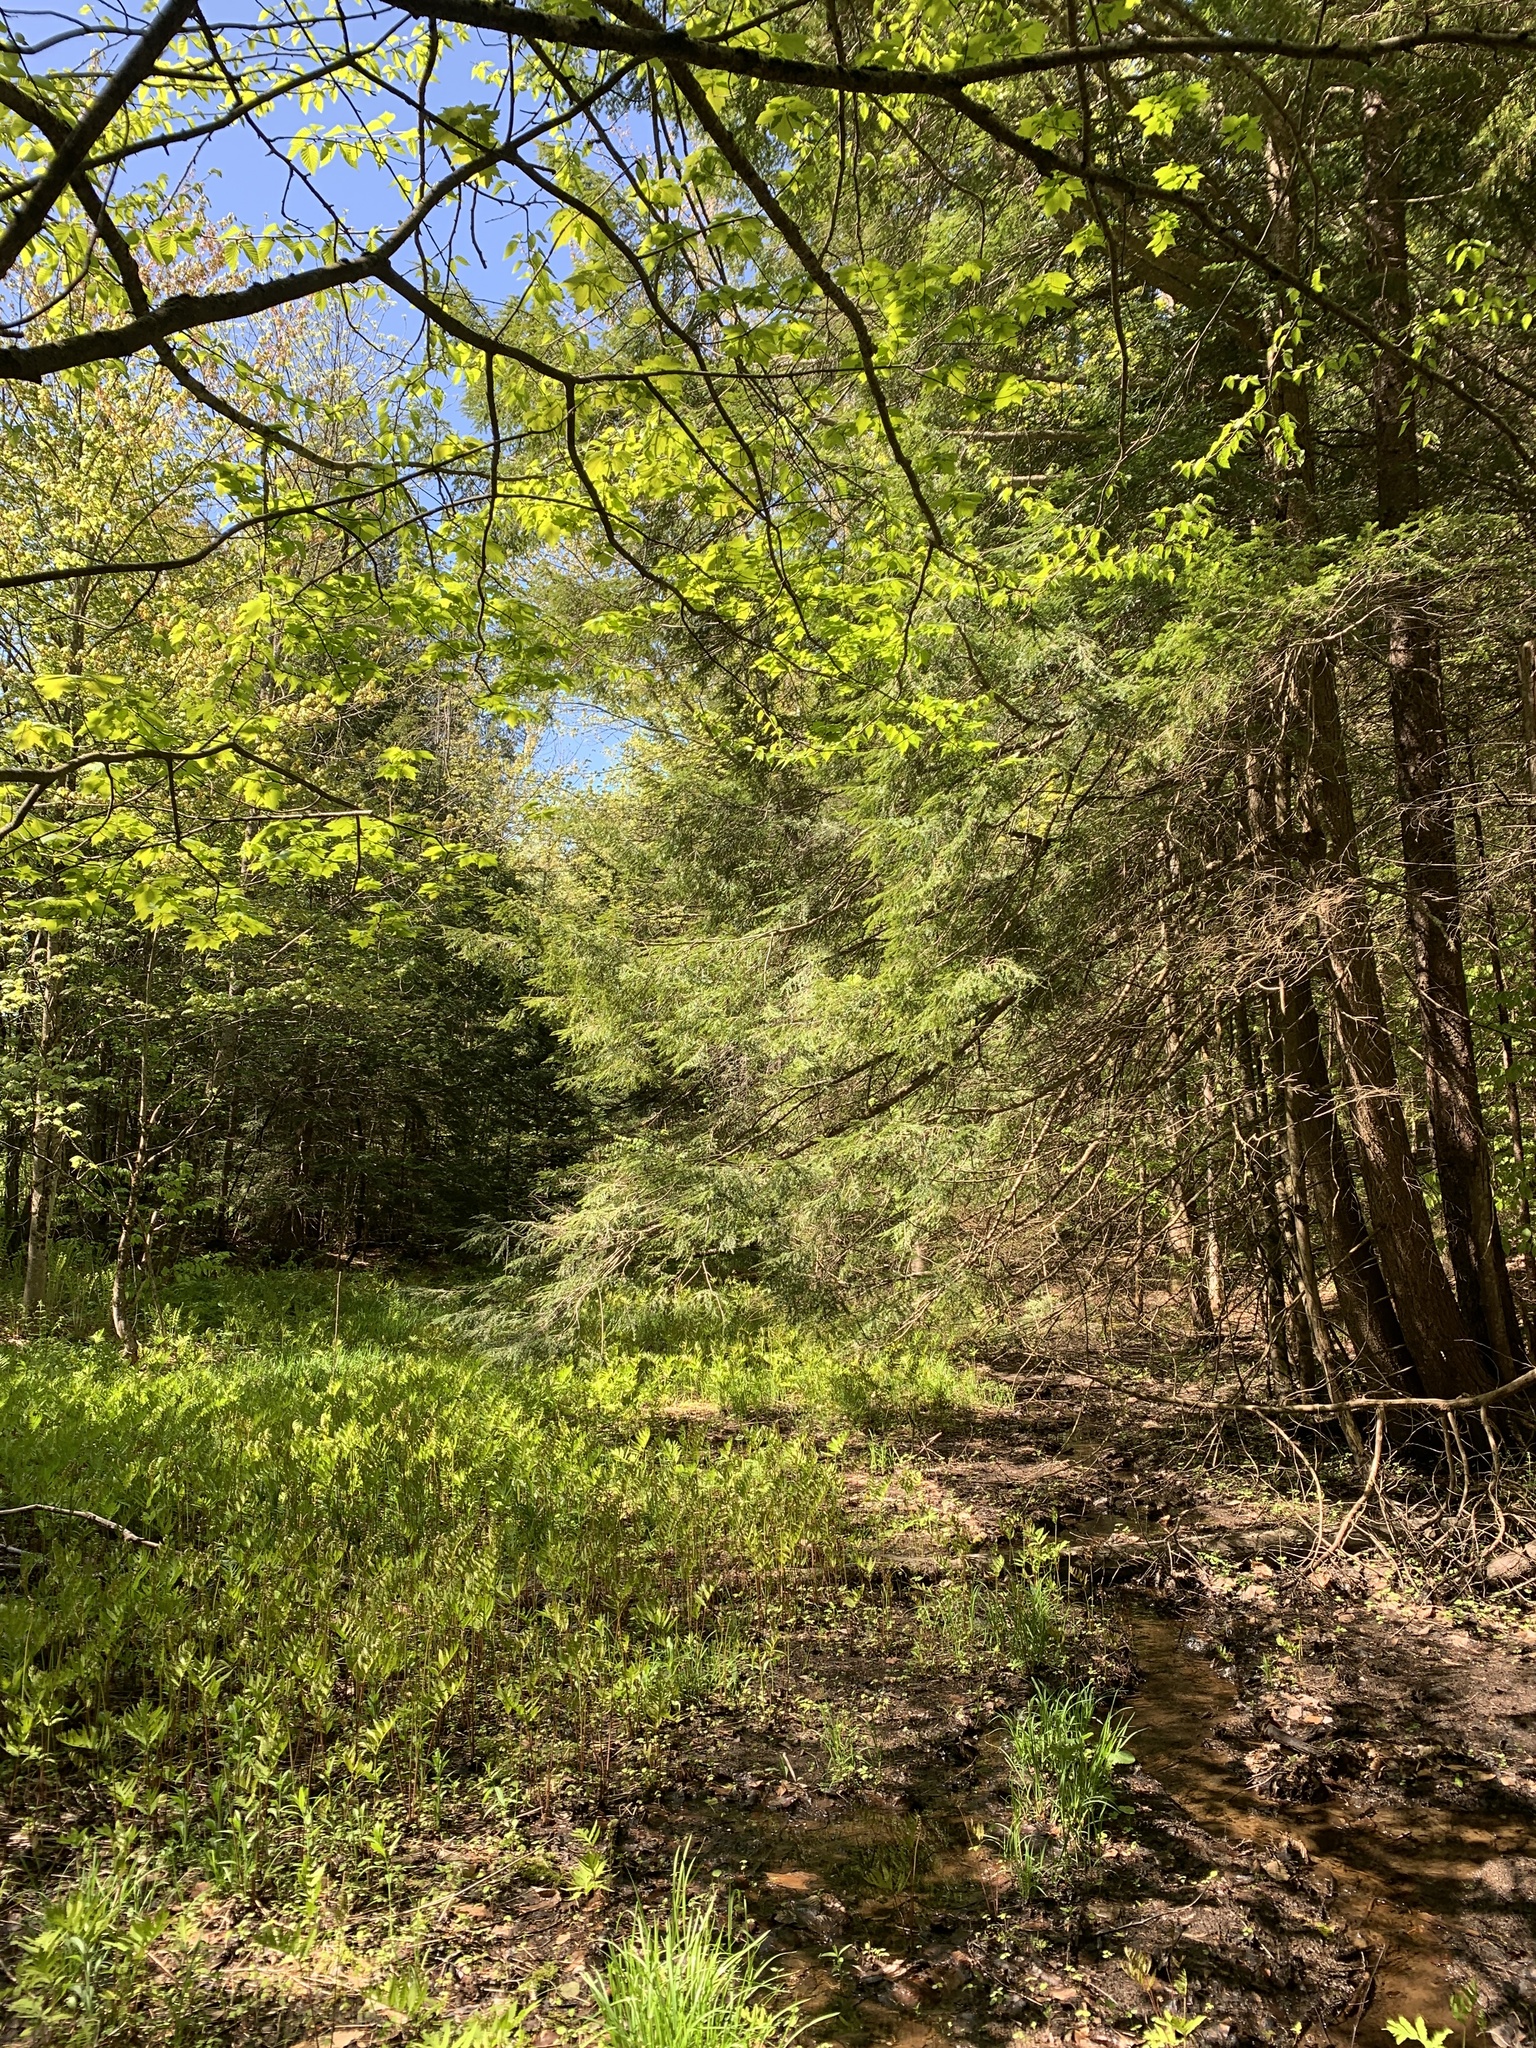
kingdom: Plantae
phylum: Tracheophyta
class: Pinopsida
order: Pinales
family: Pinaceae
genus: Tsuga
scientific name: Tsuga canadensis
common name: Eastern hemlock
